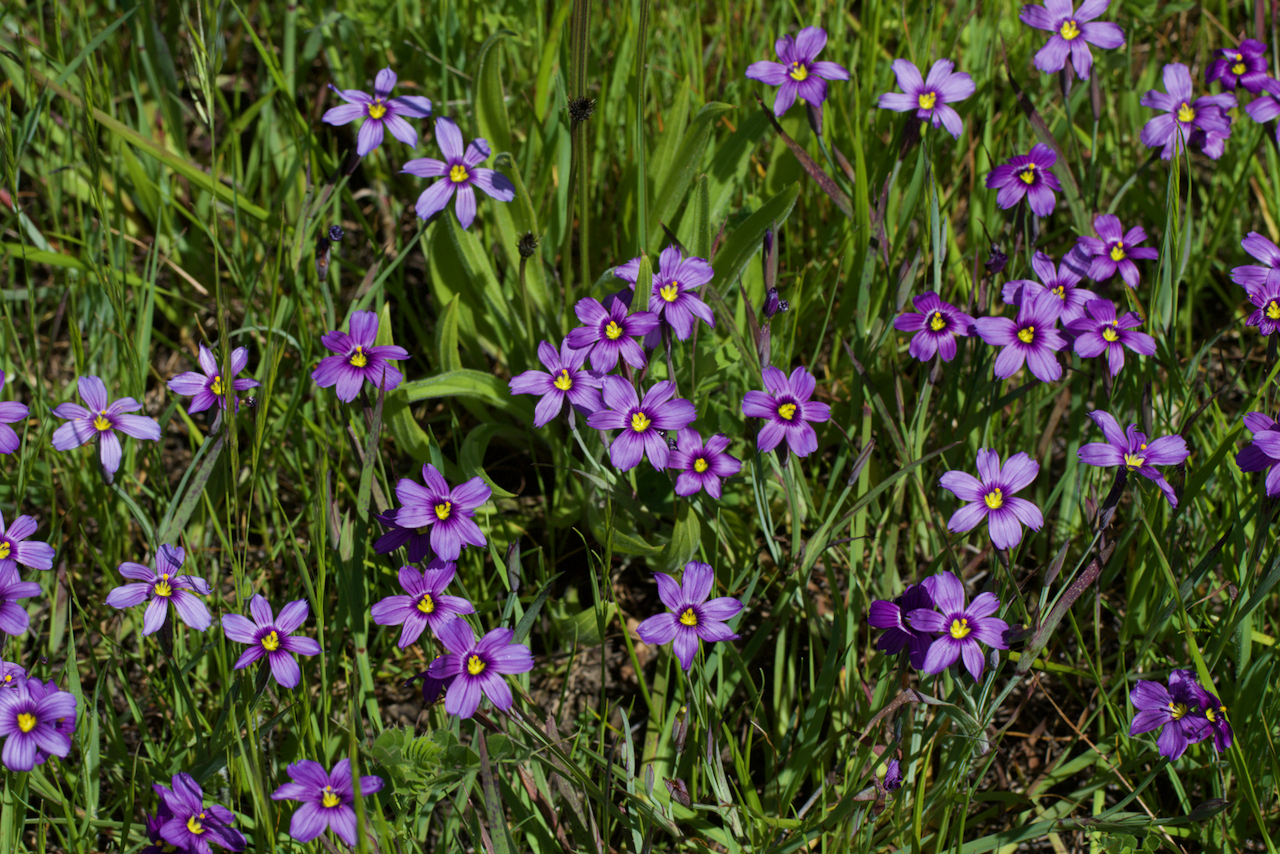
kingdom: Plantae
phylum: Tracheophyta
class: Liliopsida
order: Asparagales
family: Iridaceae
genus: Sisyrinchium
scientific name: Sisyrinchium bellum
